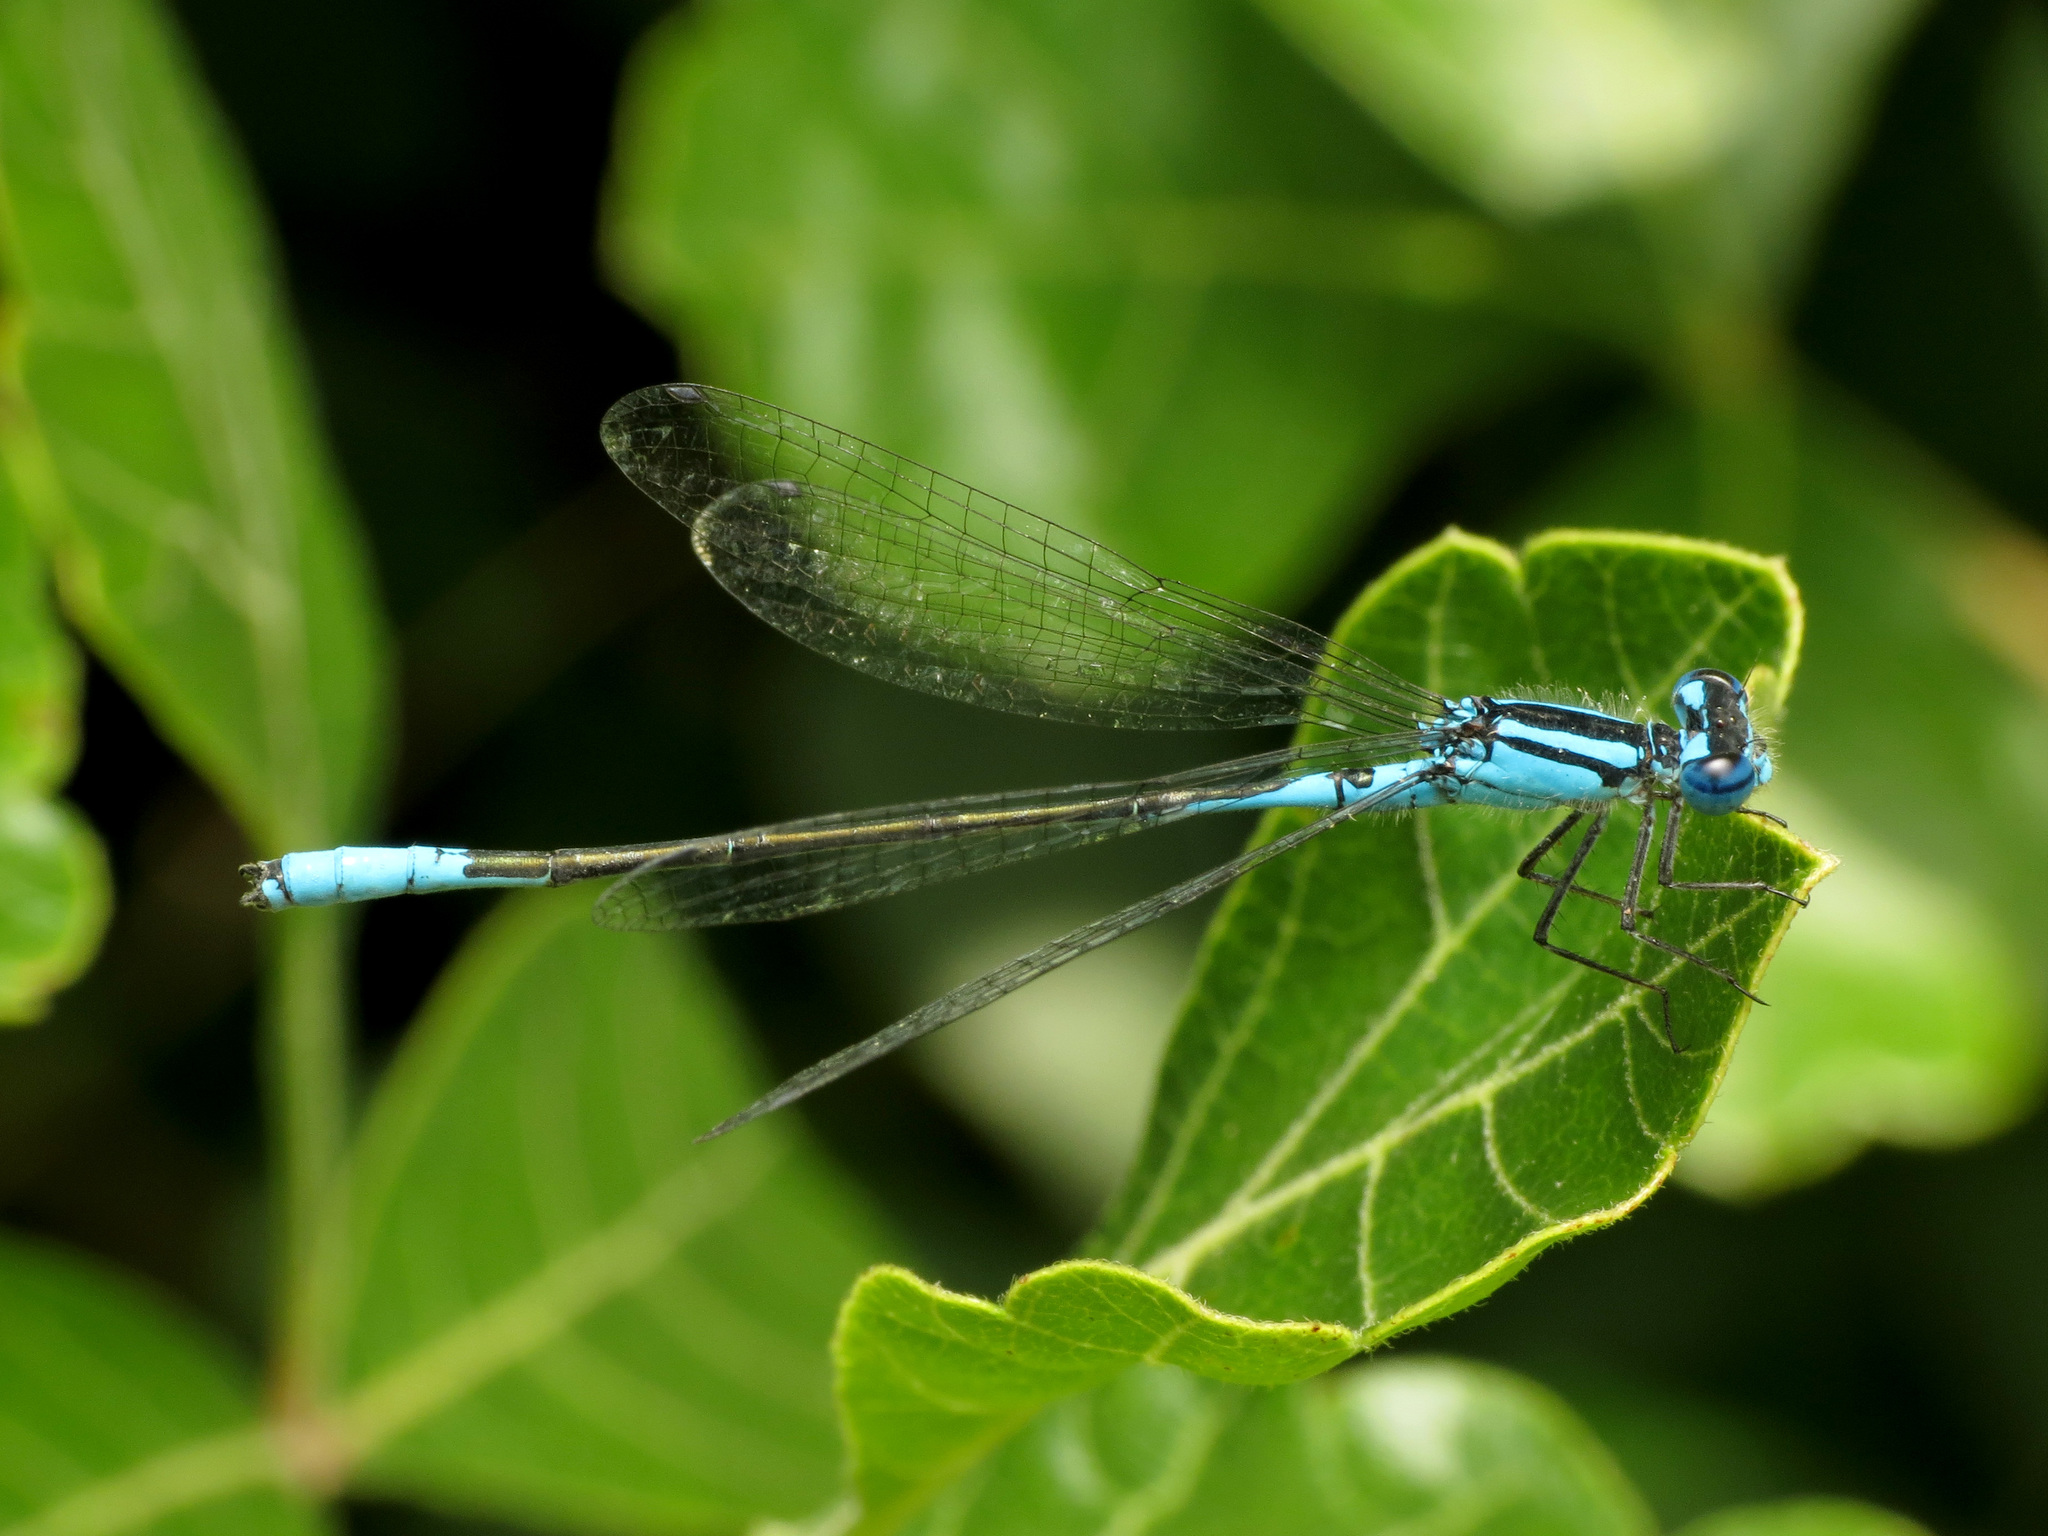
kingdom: Animalia
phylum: Arthropoda
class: Insecta
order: Odonata
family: Coenagrionidae
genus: Enallagma
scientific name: Enallagma aspersum
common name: Azure bluet
